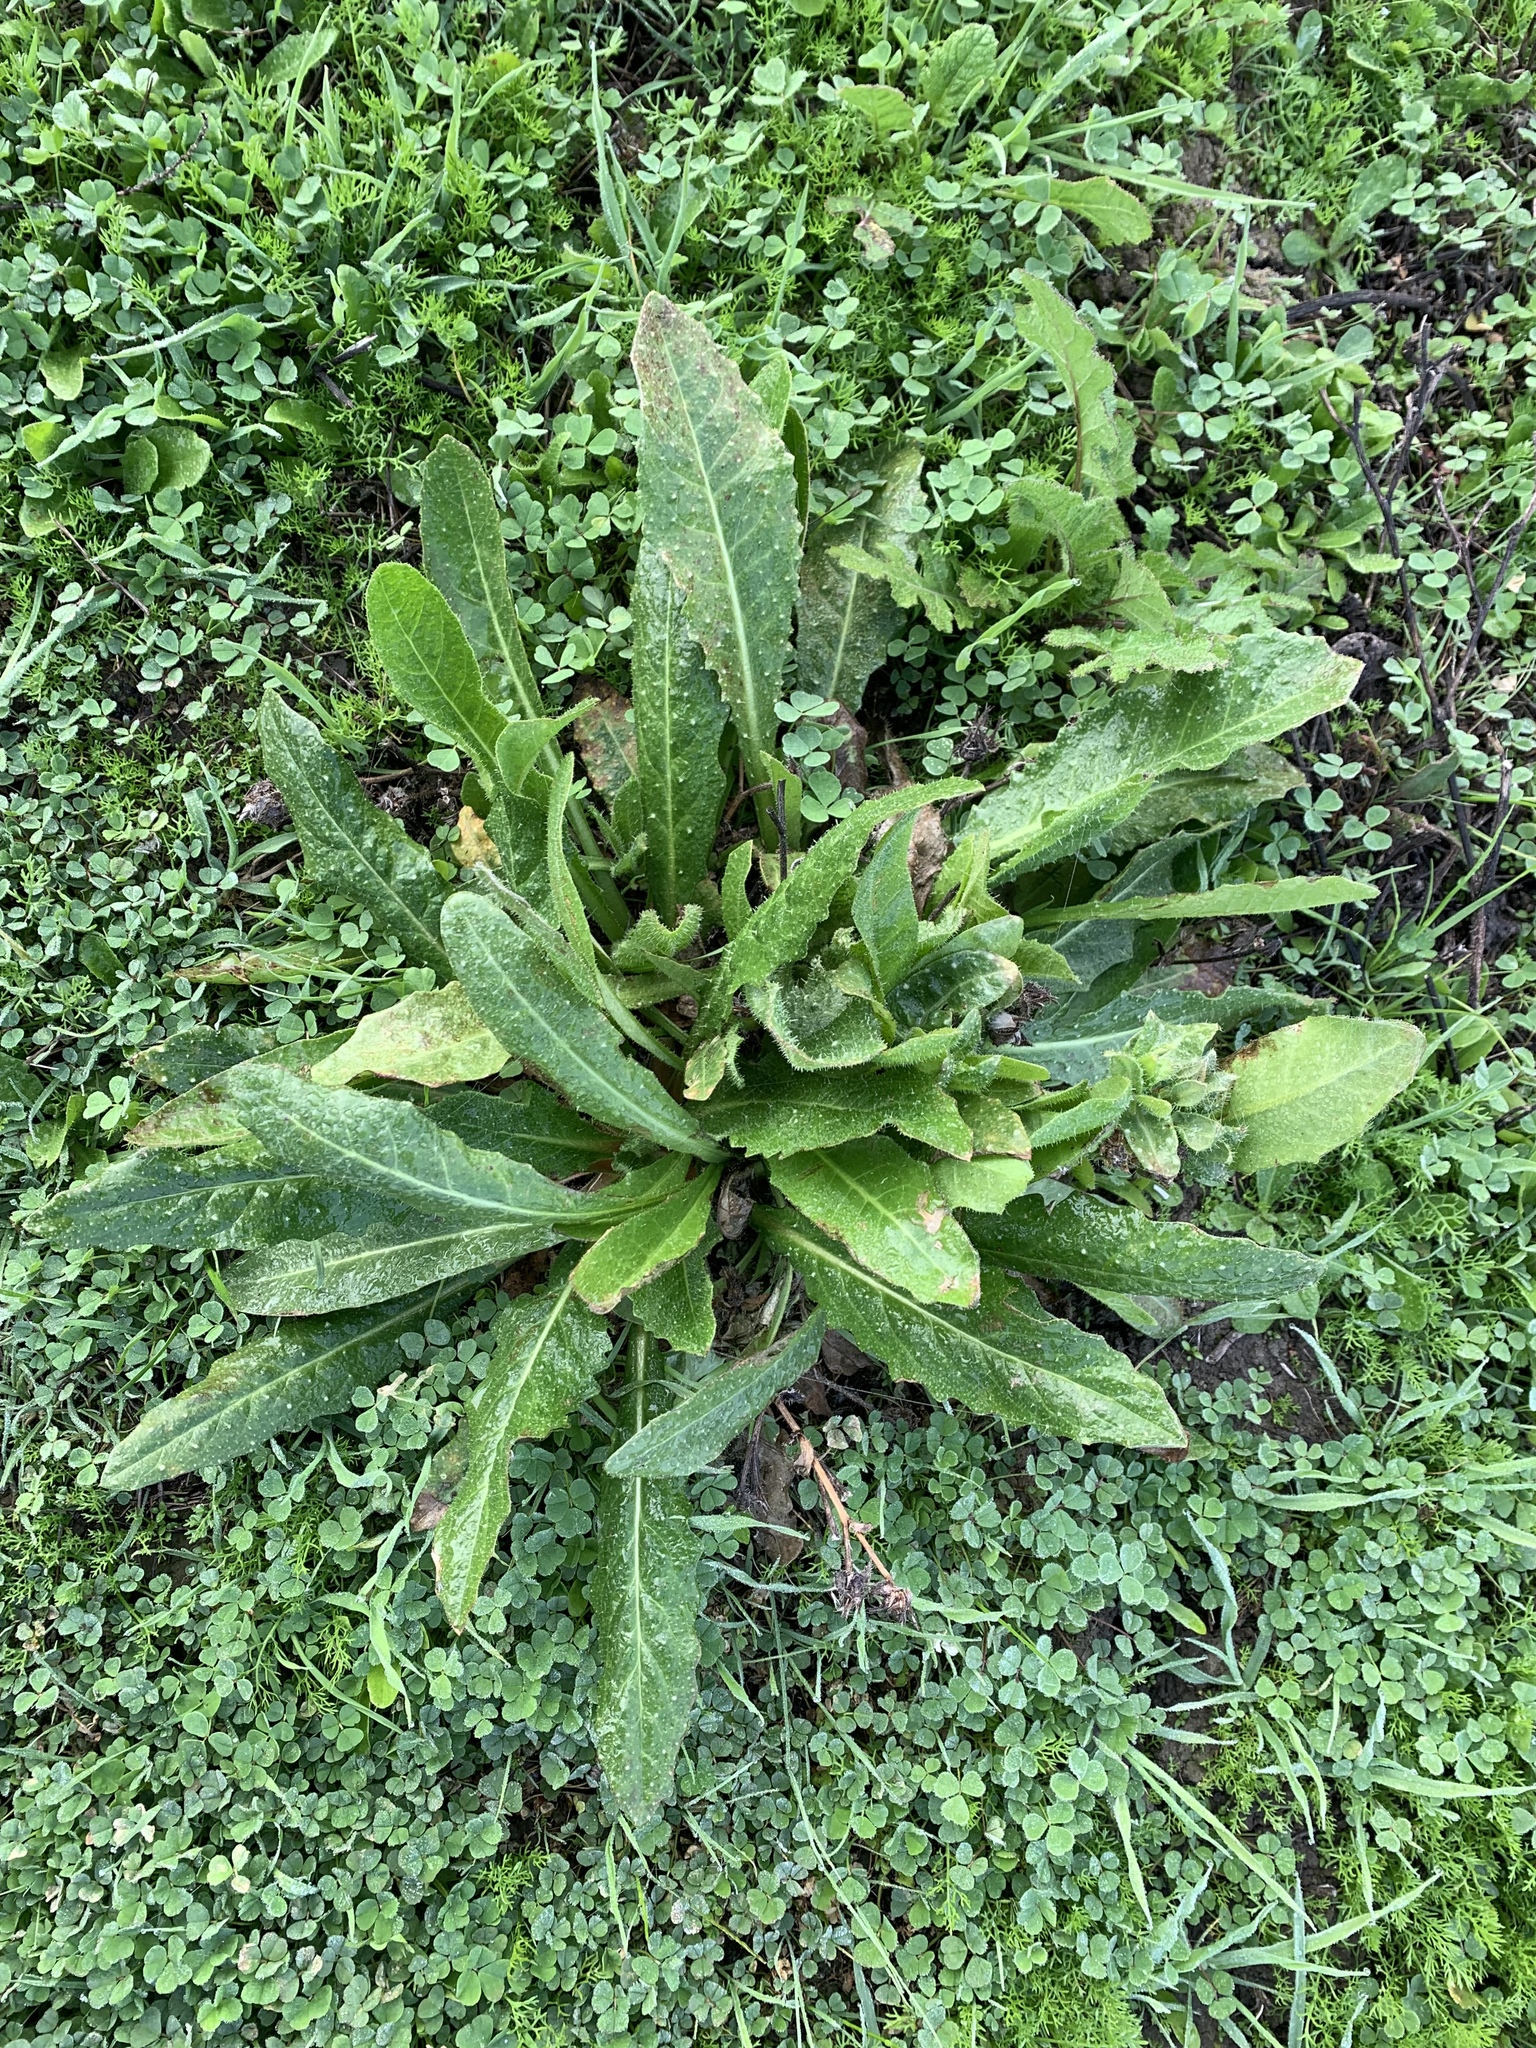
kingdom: Plantae
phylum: Tracheophyta
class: Magnoliopsida
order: Asterales
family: Asteraceae
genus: Helminthotheca
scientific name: Helminthotheca echioides
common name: Ox-tongue
